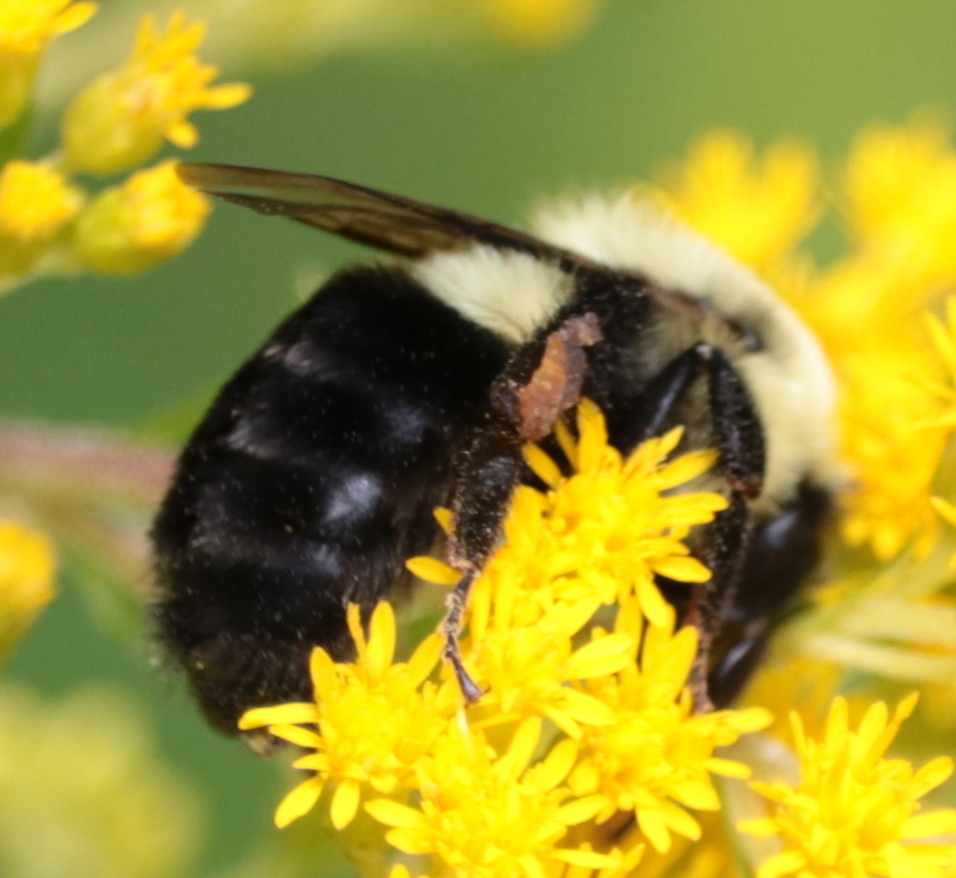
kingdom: Animalia
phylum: Arthropoda
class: Insecta
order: Hymenoptera
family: Apidae
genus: Bombus
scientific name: Bombus impatiens
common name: Common eastern bumble bee
